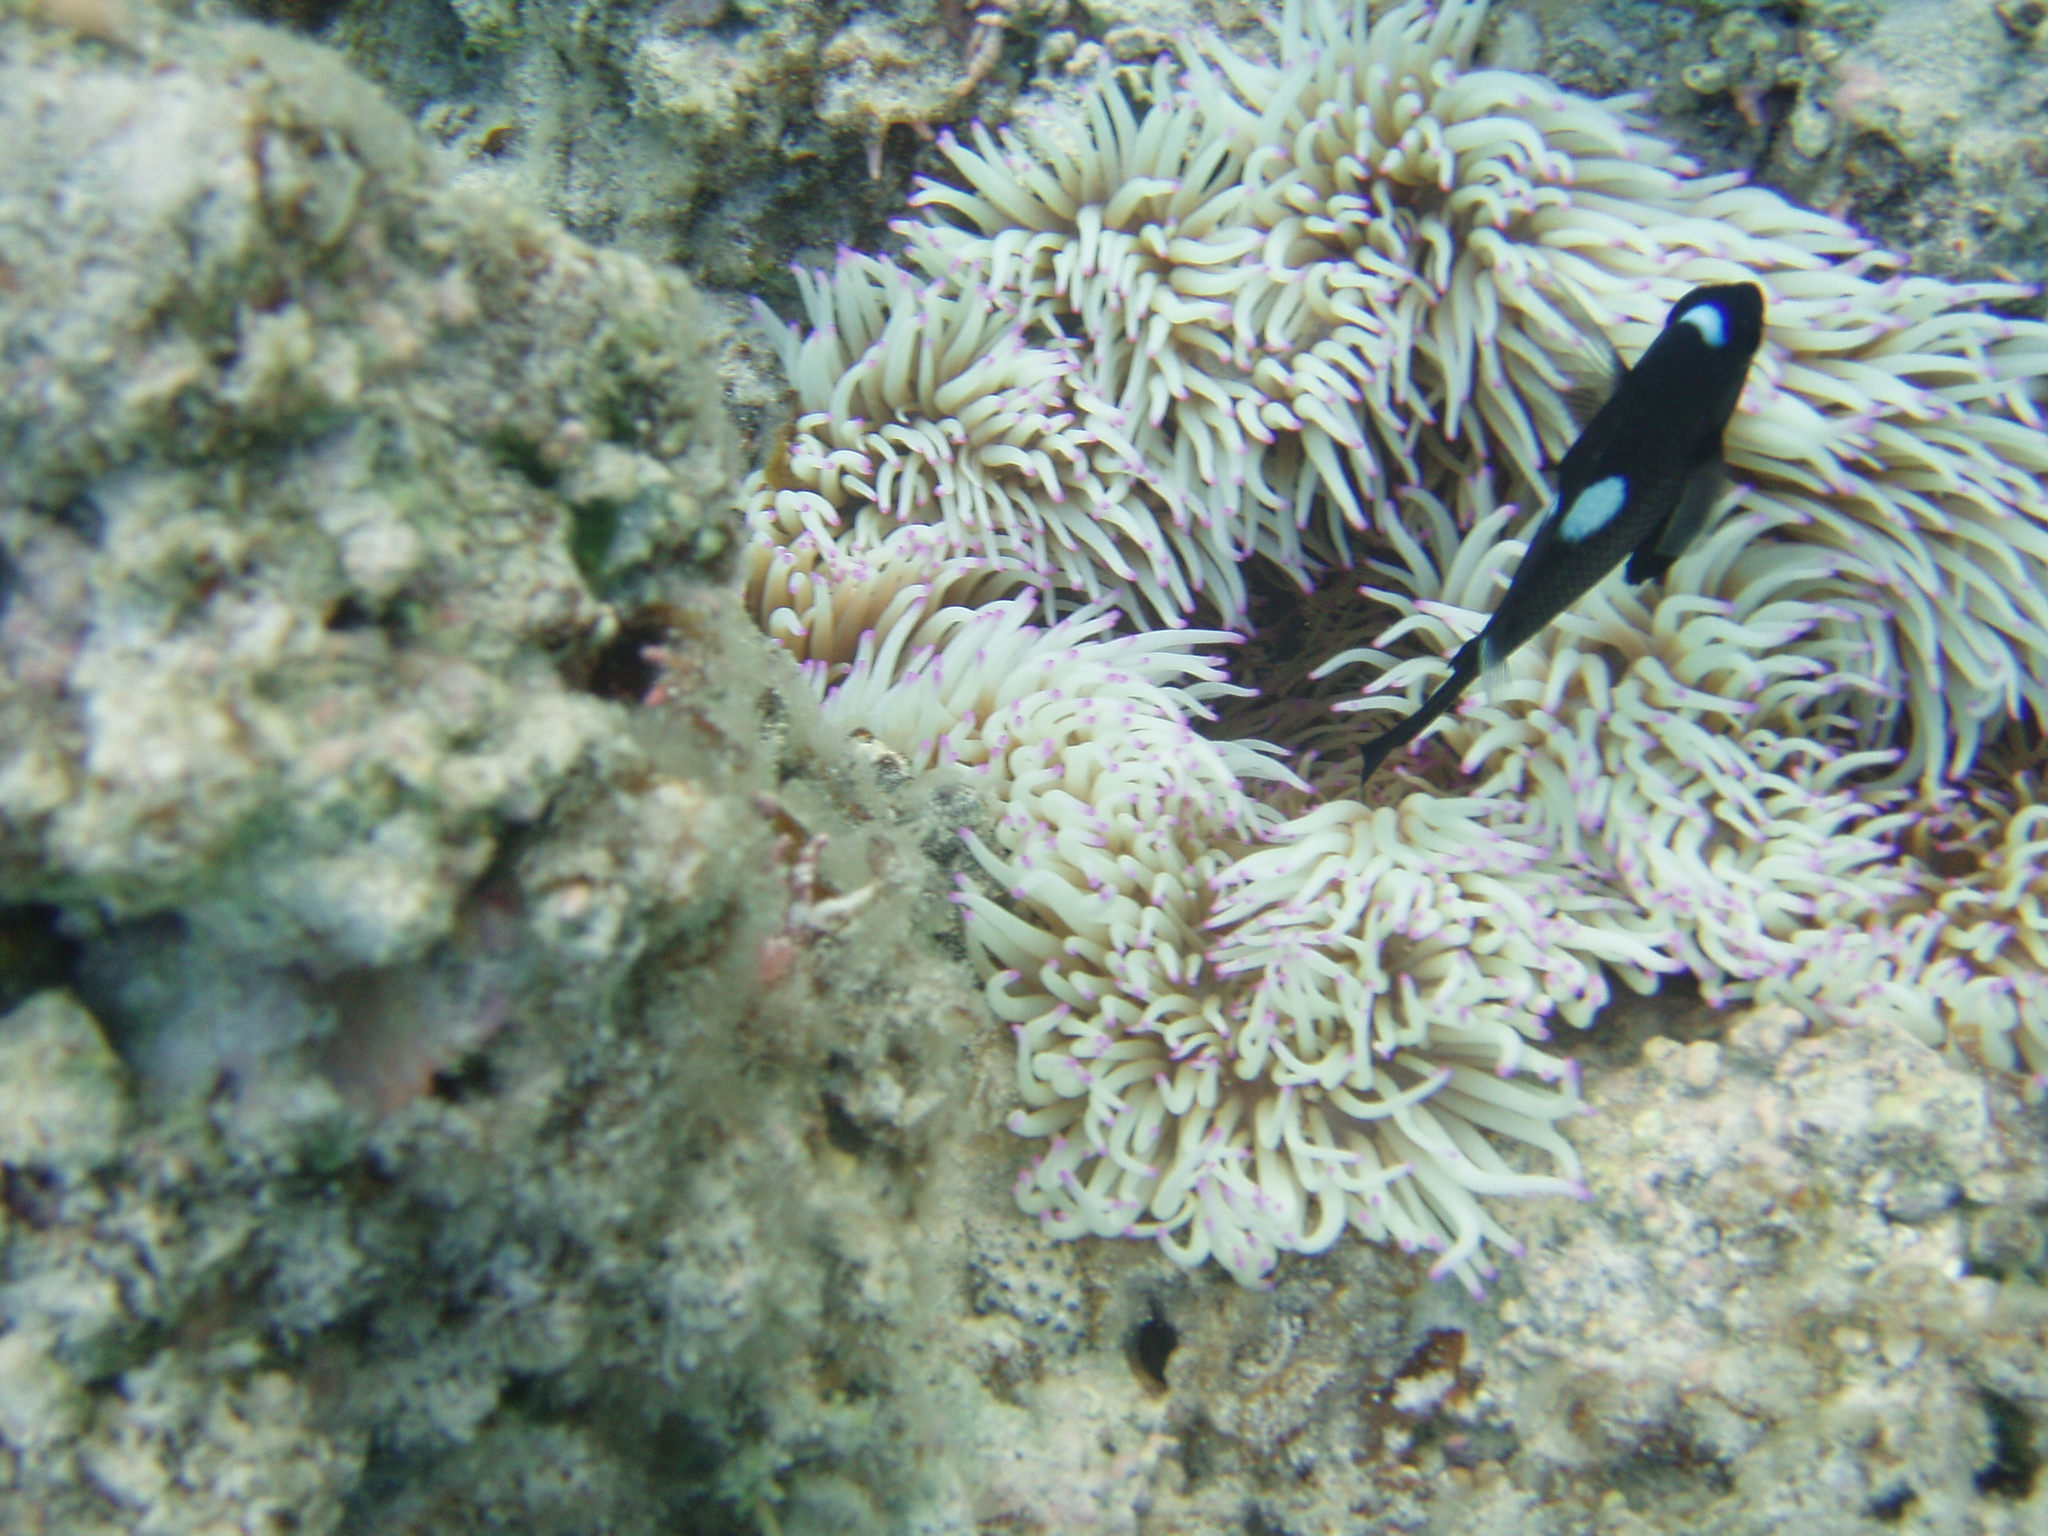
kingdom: Animalia
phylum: Chordata
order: Perciformes
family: Pomacentridae
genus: Dascyllus
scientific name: Dascyllus trimaculatus
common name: Threespot dascyllus
